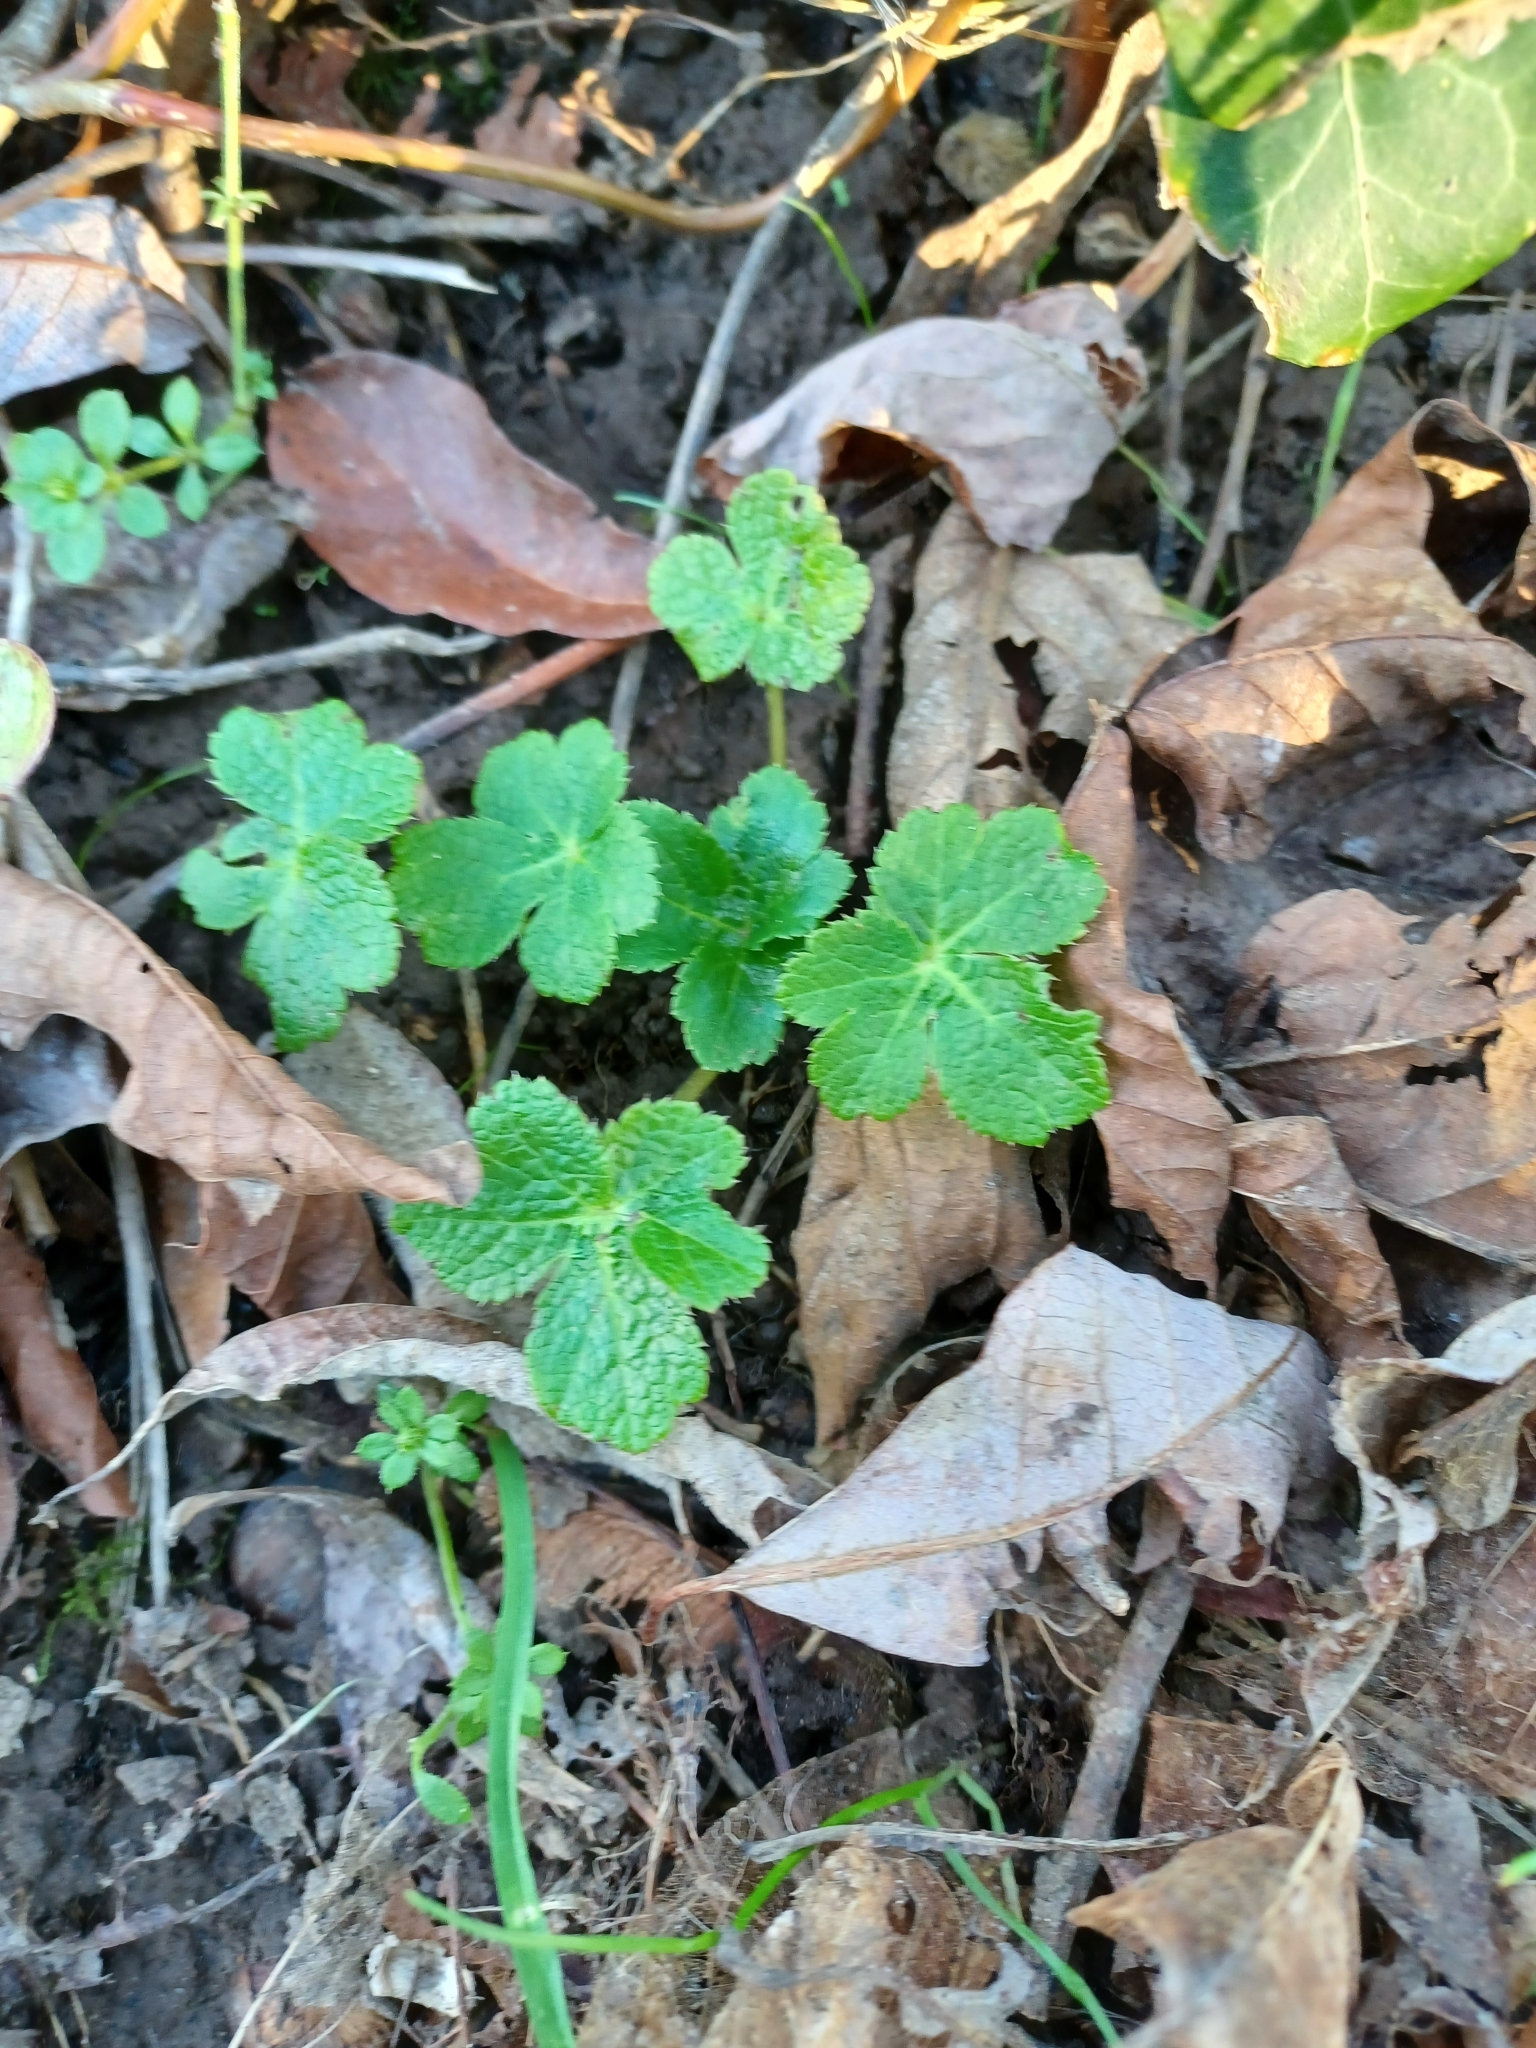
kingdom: Plantae
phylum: Tracheophyta
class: Magnoliopsida
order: Apiales
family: Apiaceae
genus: Sanicula
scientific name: Sanicula crassicaulis
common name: Western snakeroot
